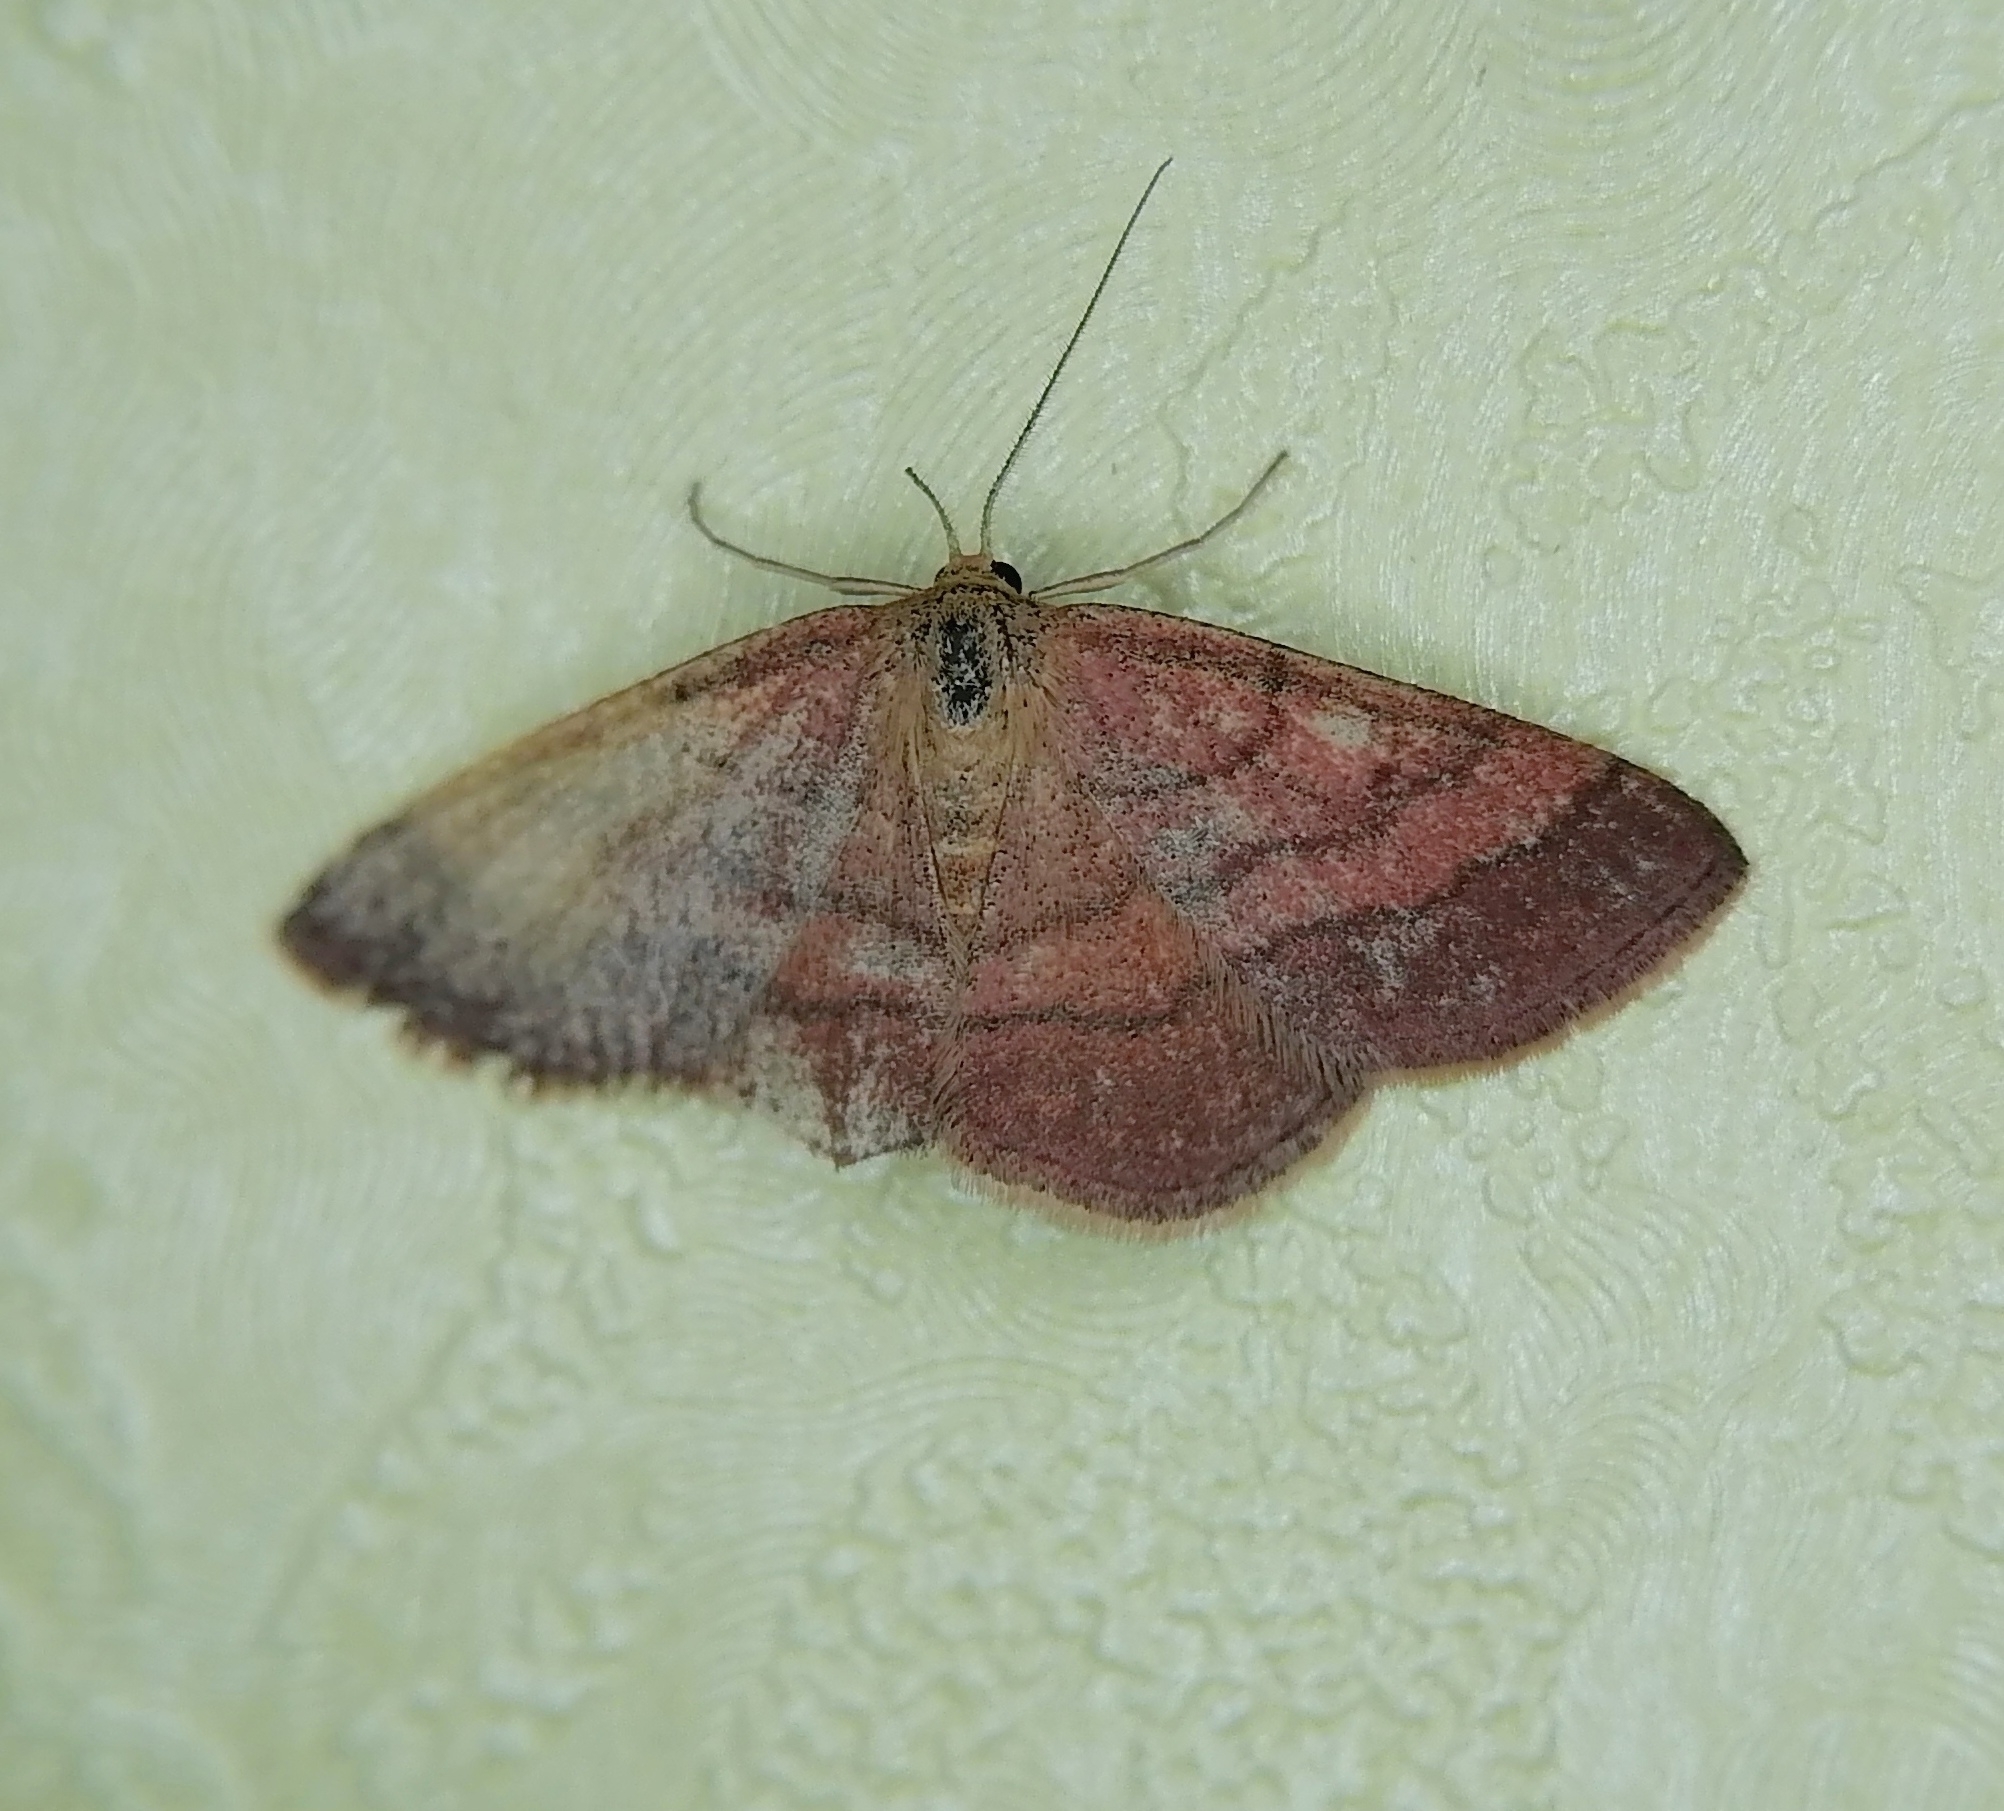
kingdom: Animalia
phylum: Arthropoda
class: Insecta
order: Lepidoptera
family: Geometridae
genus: Scopula
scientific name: Scopula rubiginata
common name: Tawny wave
